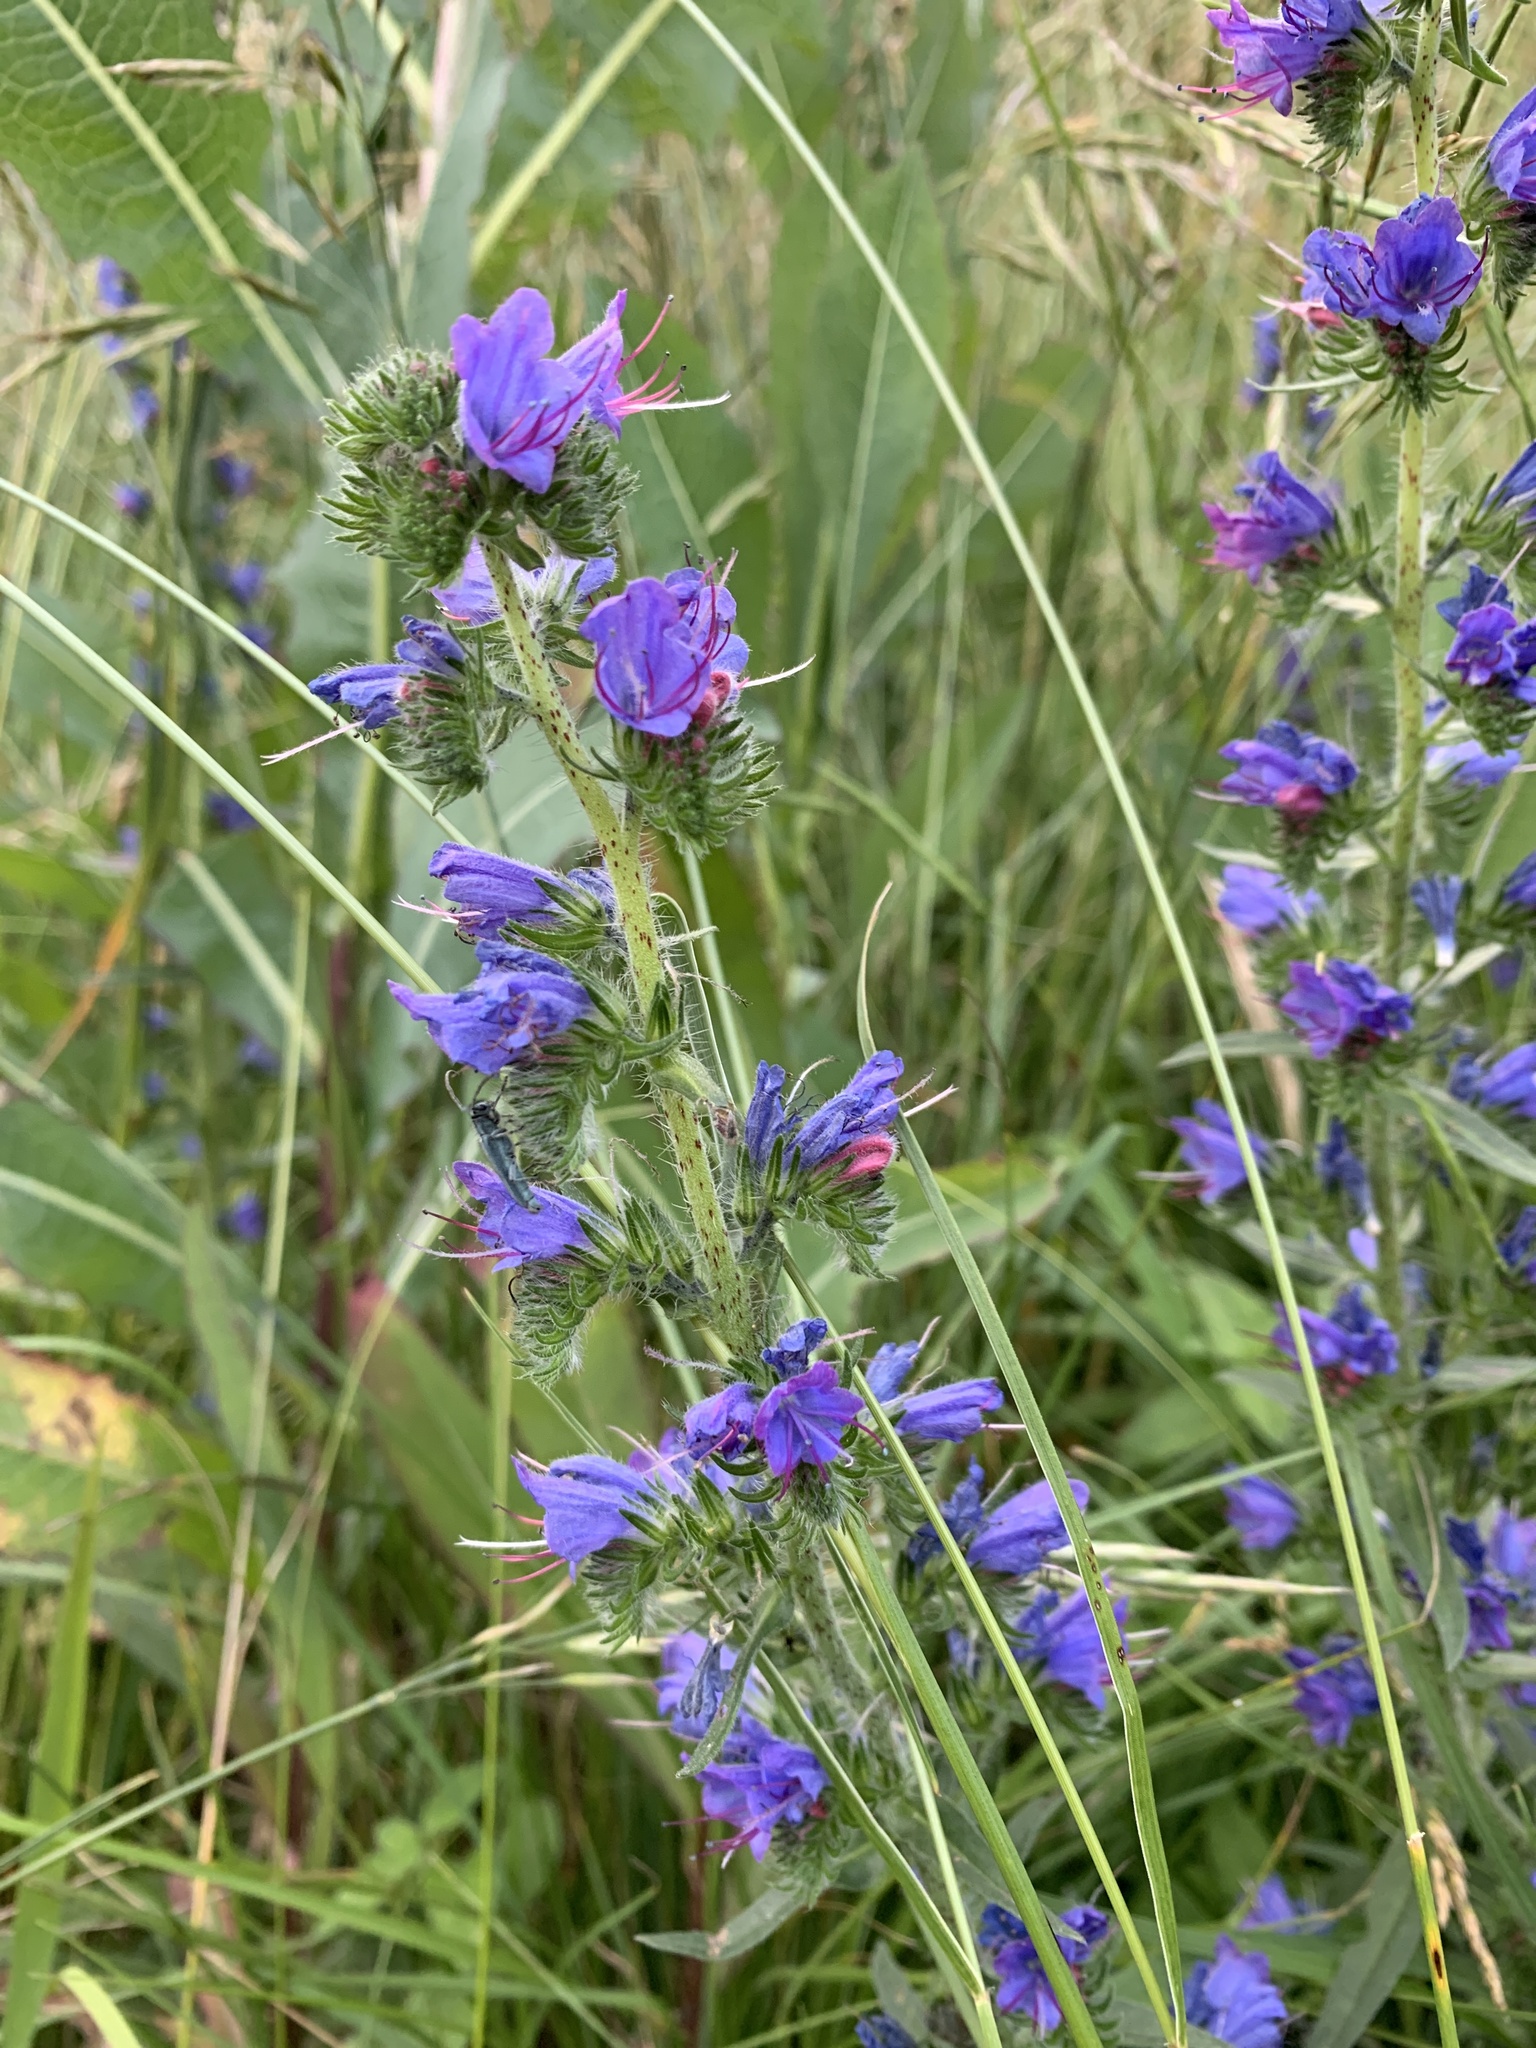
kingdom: Plantae
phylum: Tracheophyta
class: Magnoliopsida
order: Boraginales
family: Boraginaceae
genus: Echium
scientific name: Echium vulgare
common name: Common viper's bugloss
